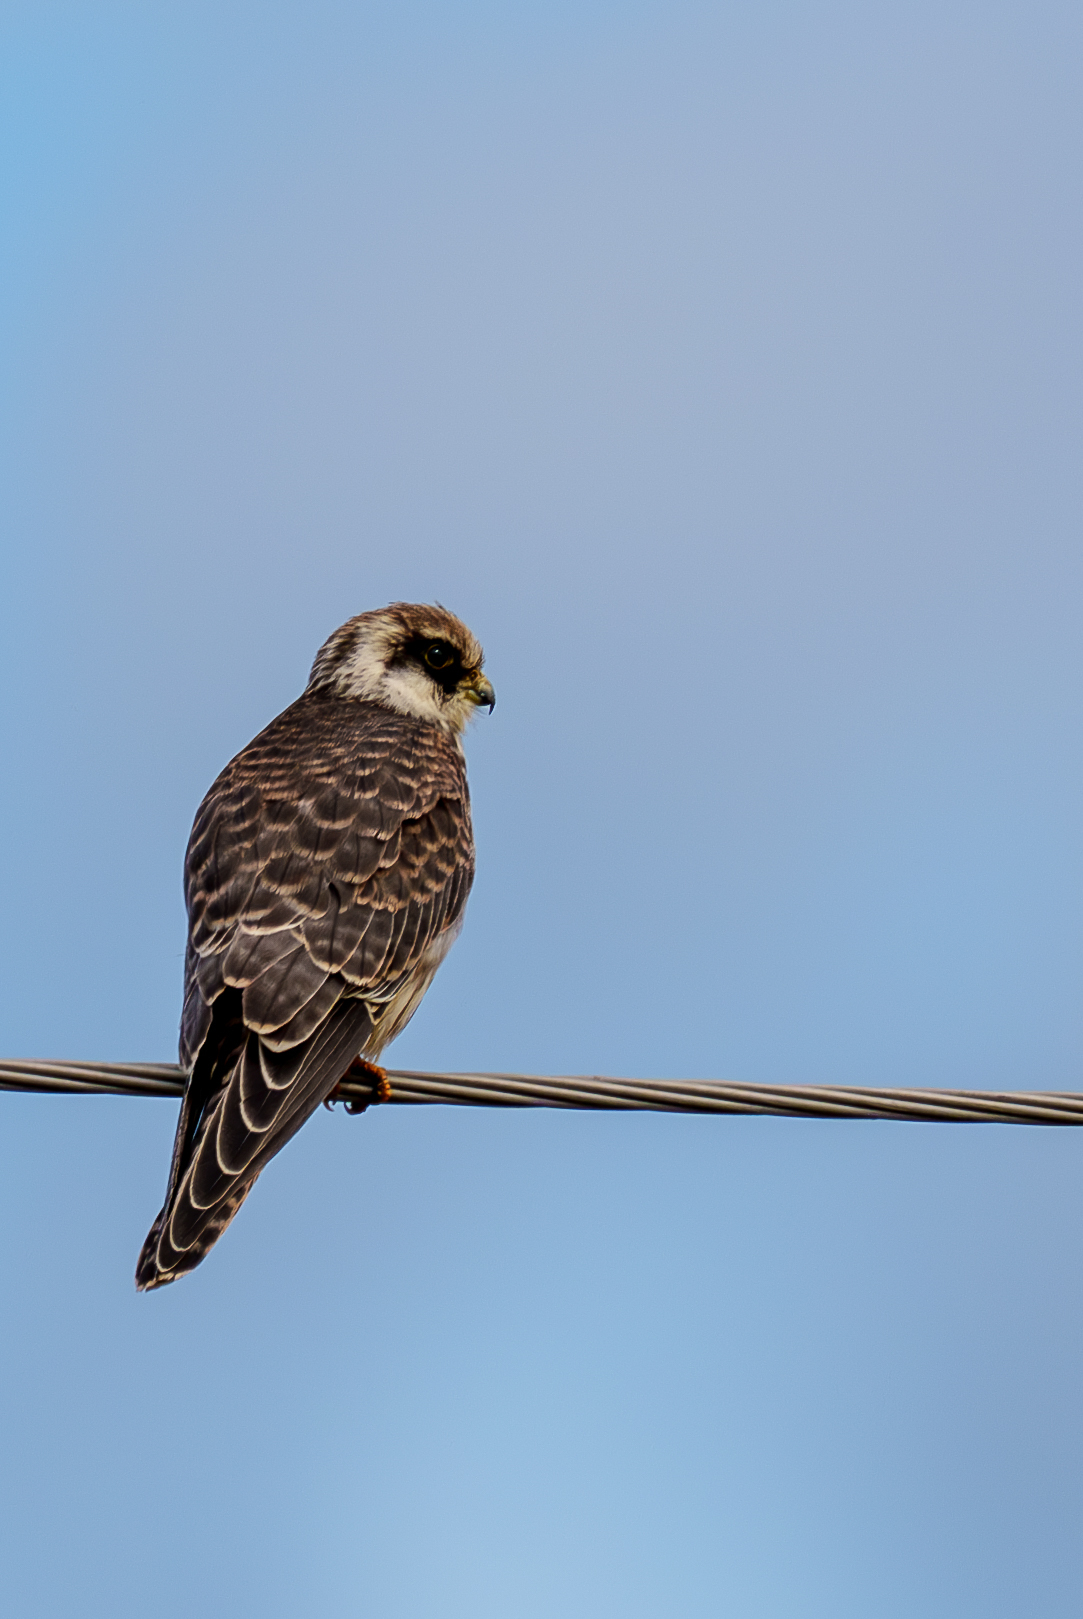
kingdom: Animalia
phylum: Chordata
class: Aves
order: Falconiformes
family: Falconidae
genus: Falco
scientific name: Falco vespertinus
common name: Red-footed falcon
